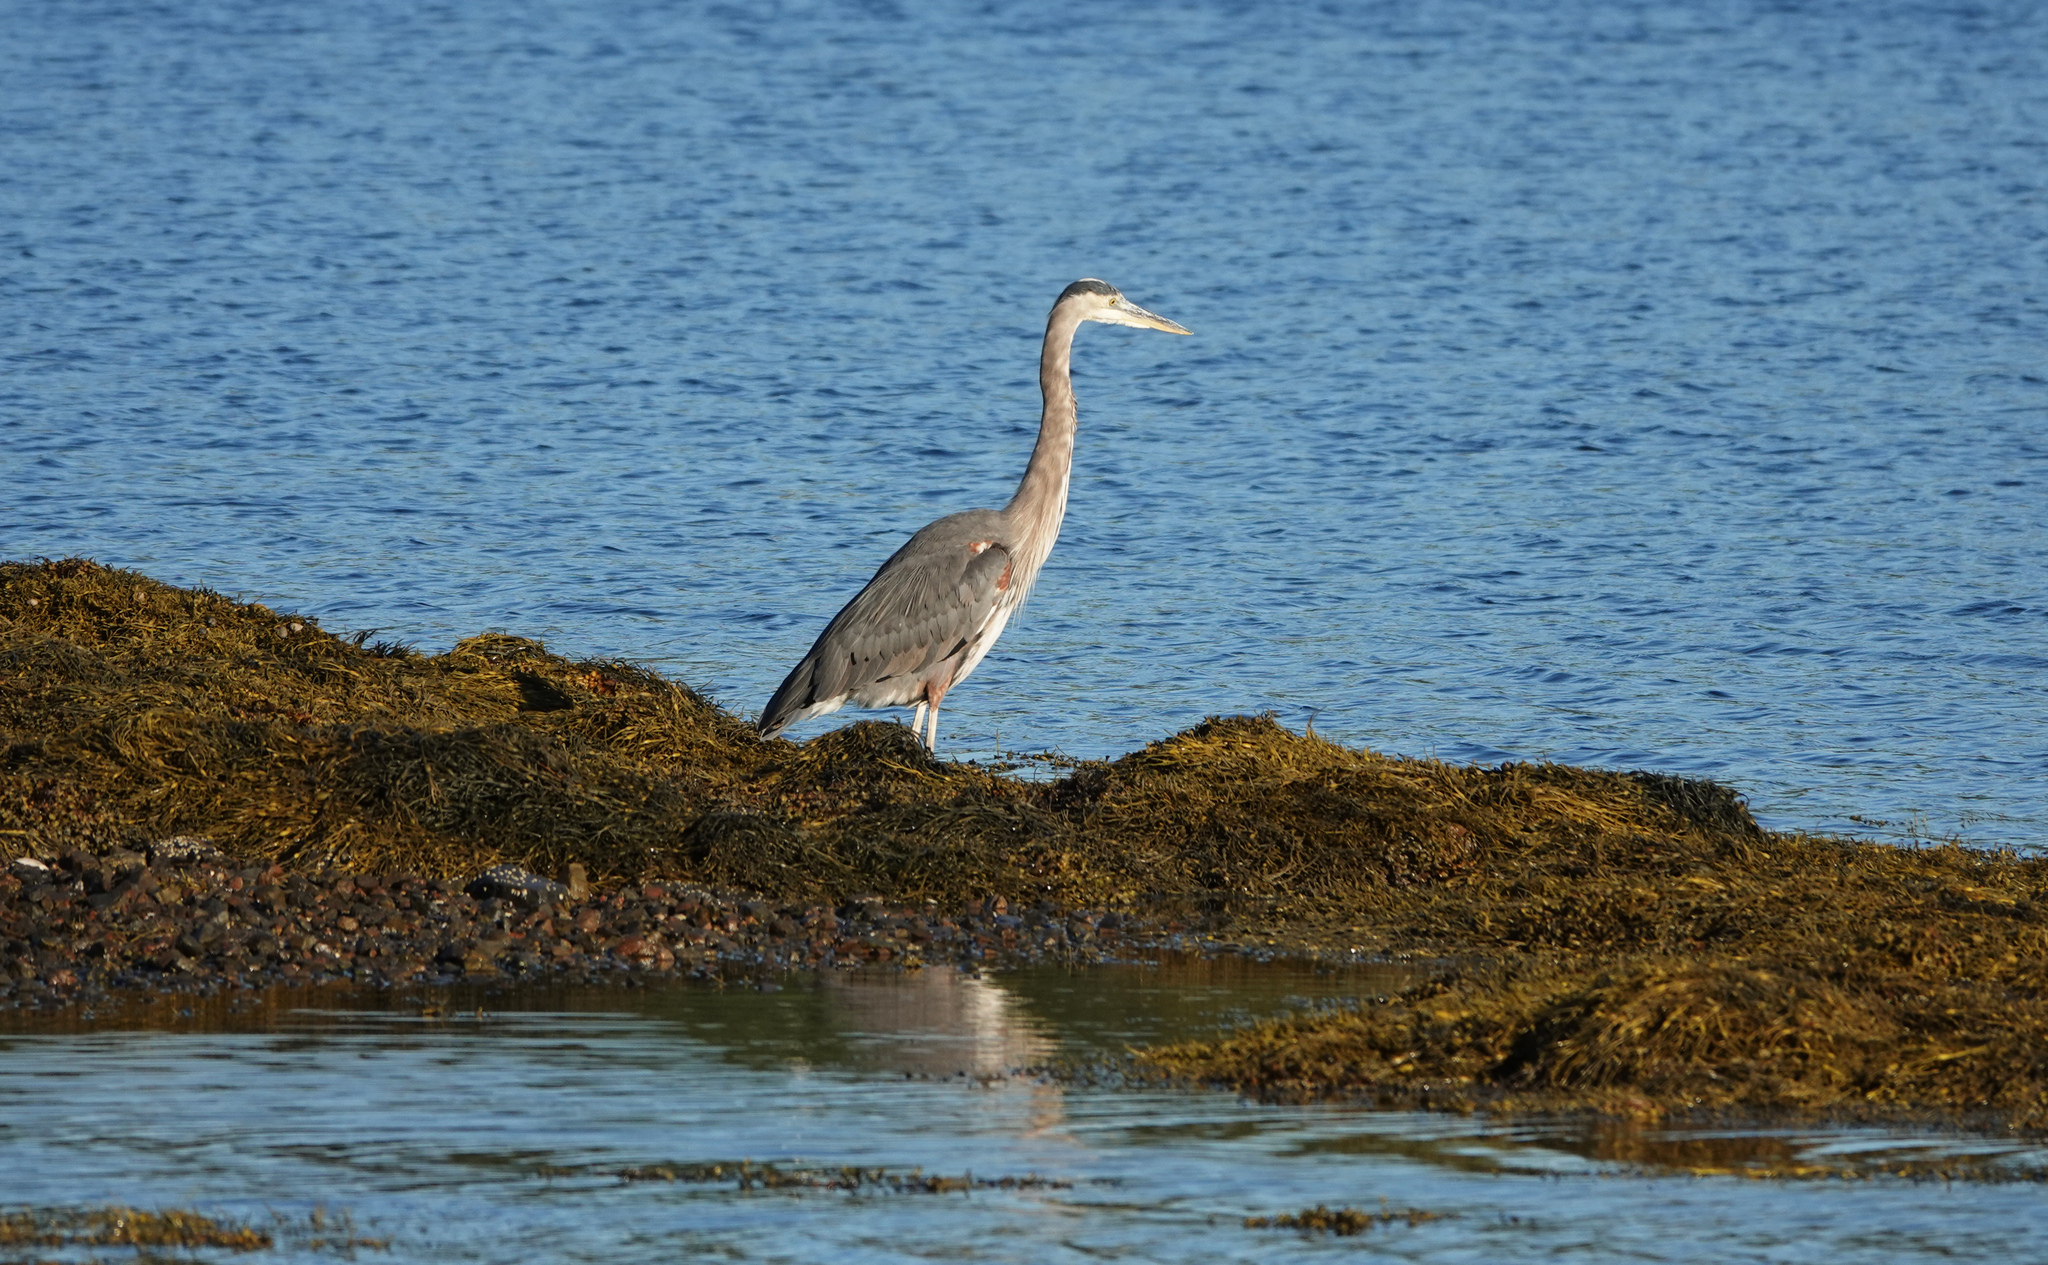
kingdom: Animalia
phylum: Chordata
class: Aves
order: Pelecaniformes
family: Ardeidae
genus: Ardea
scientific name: Ardea herodias
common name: Great blue heron
